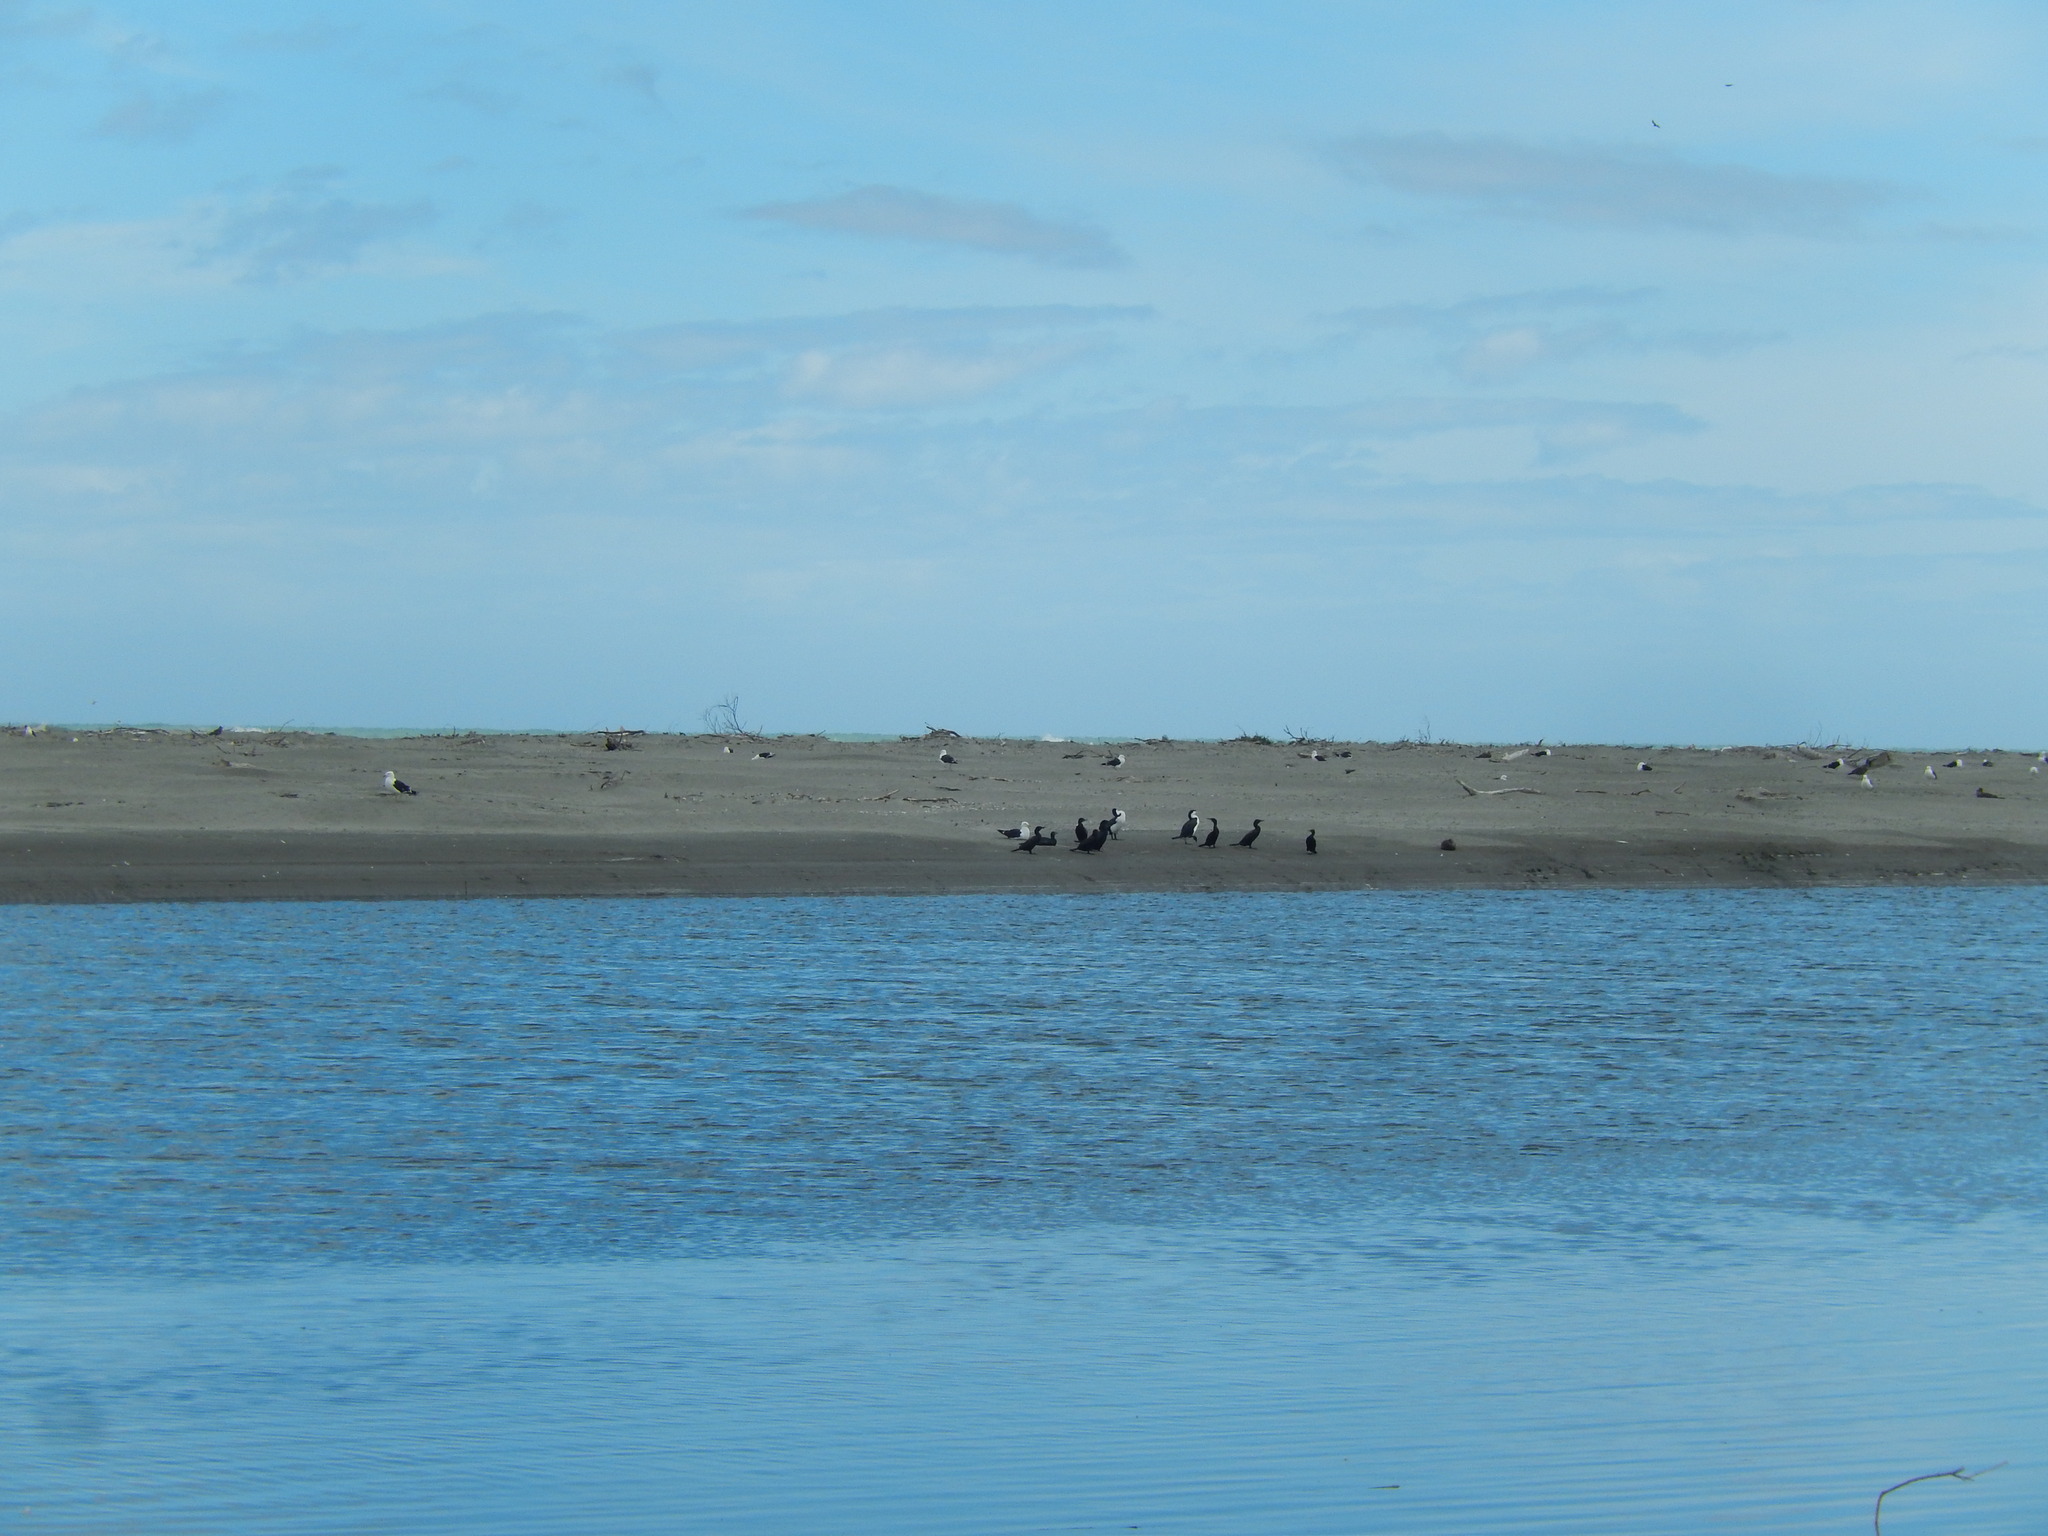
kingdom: Animalia
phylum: Chordata
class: Aves
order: Suliformes
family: Phalacrocoracidae
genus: Phalacrocorax
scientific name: Phalacrocorax sulcirostris
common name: Little black cormorant
